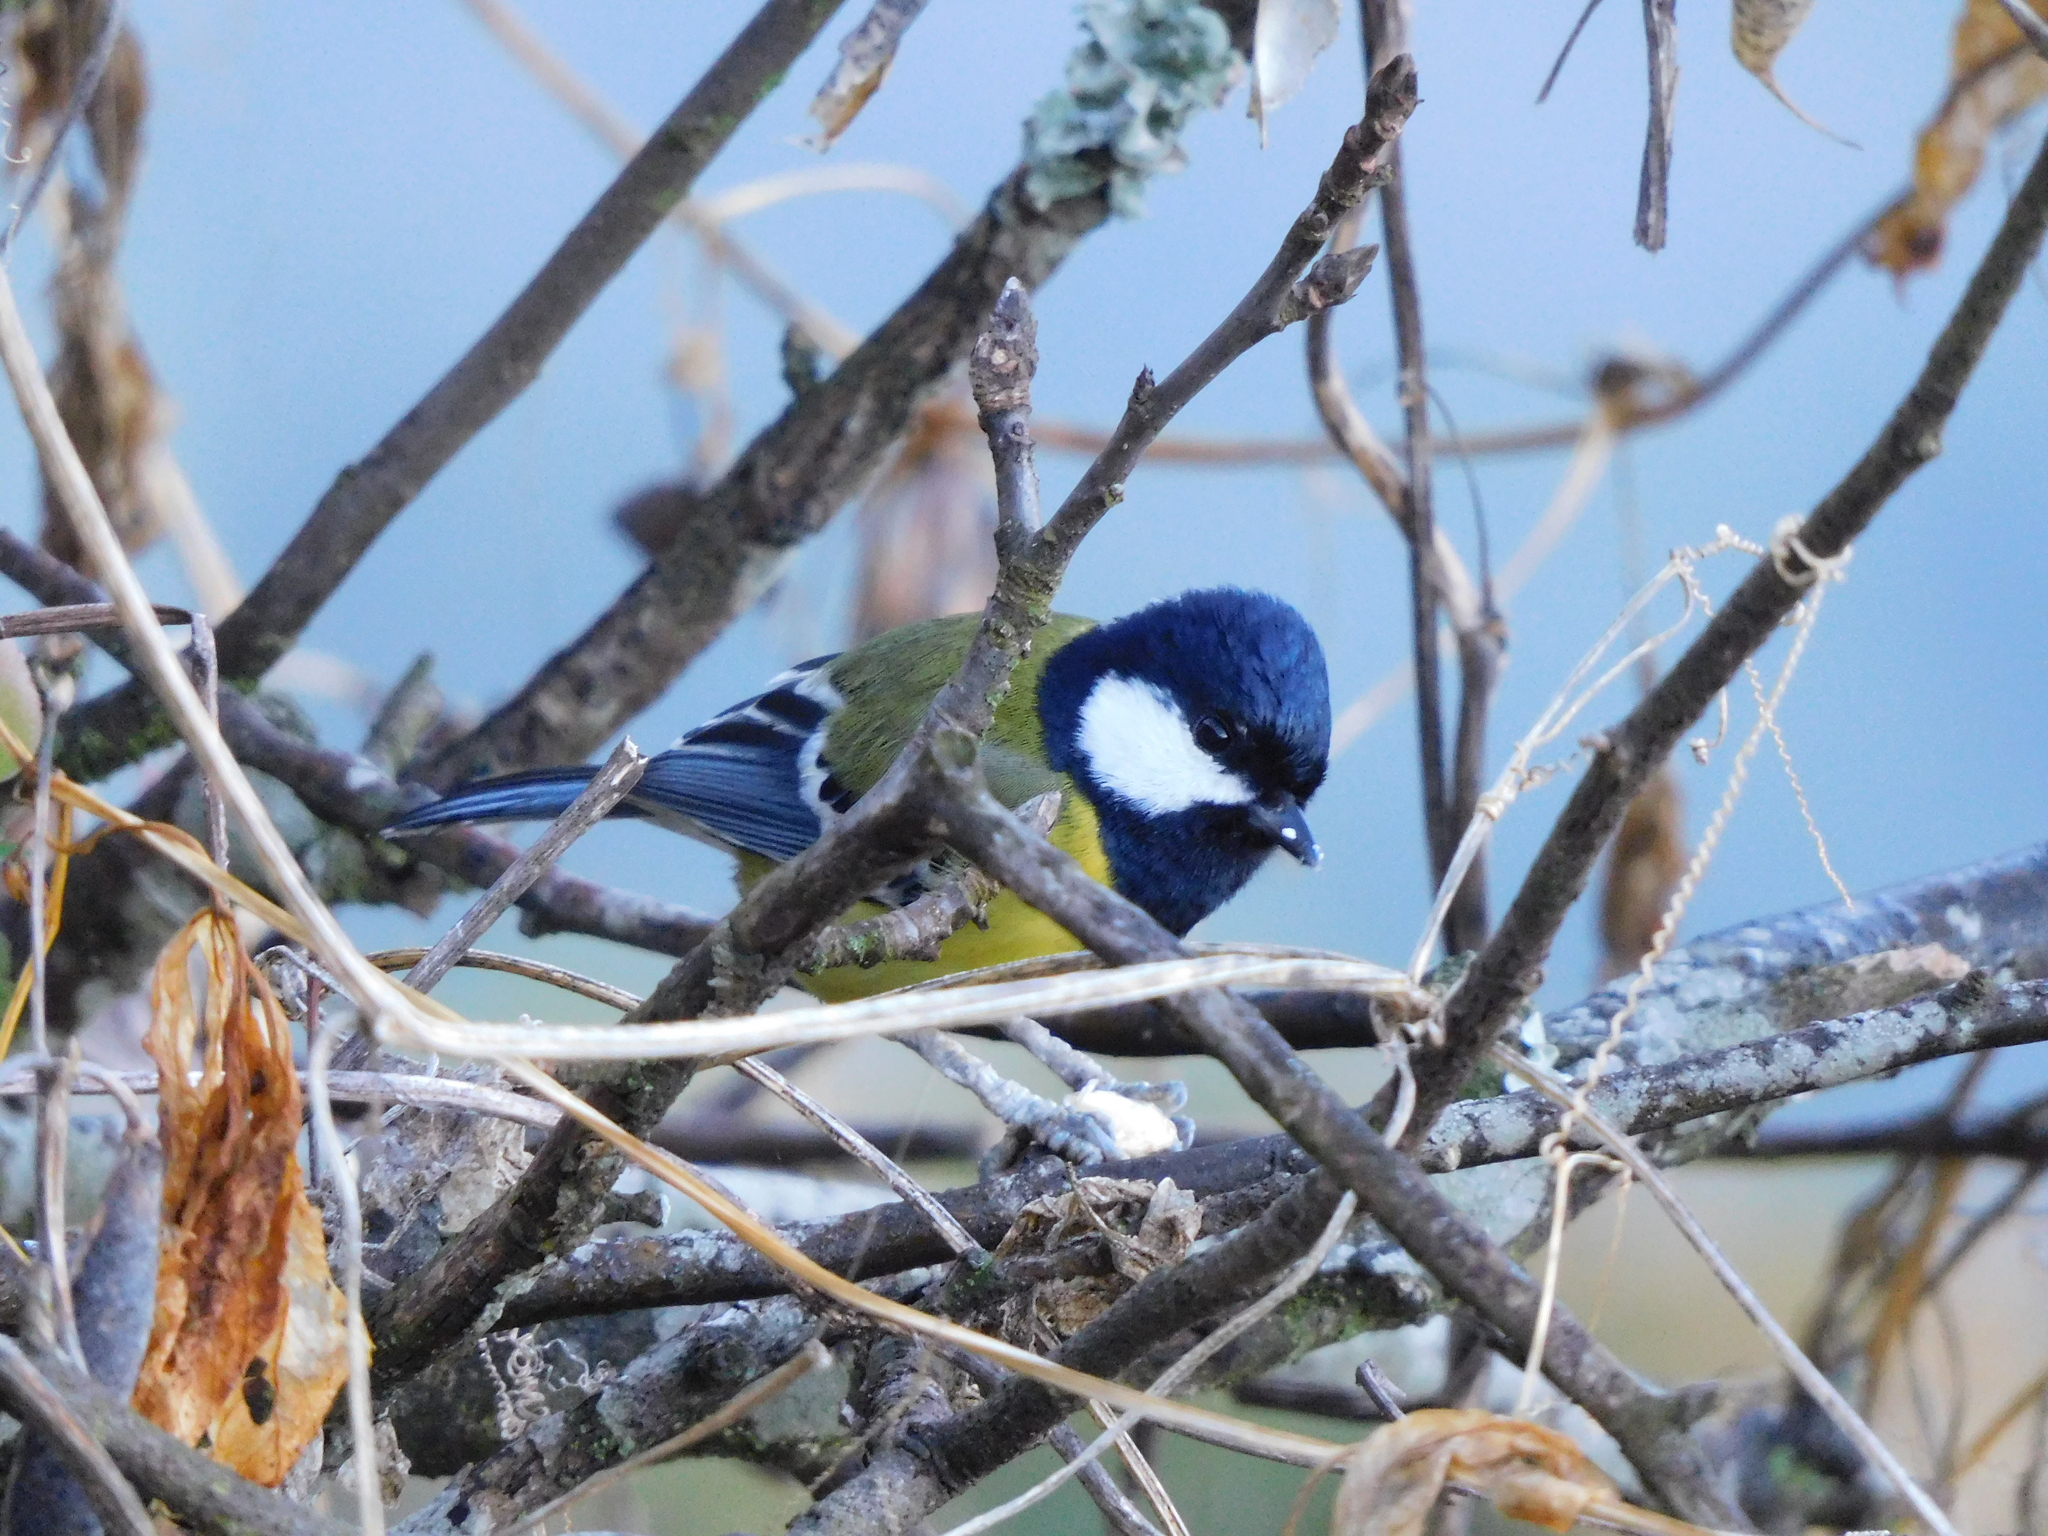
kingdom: Animalia
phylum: Chordata
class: Aves
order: Passeriformes
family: Paridae
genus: Parus
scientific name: Parus monticolus
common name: Green-backed tit
